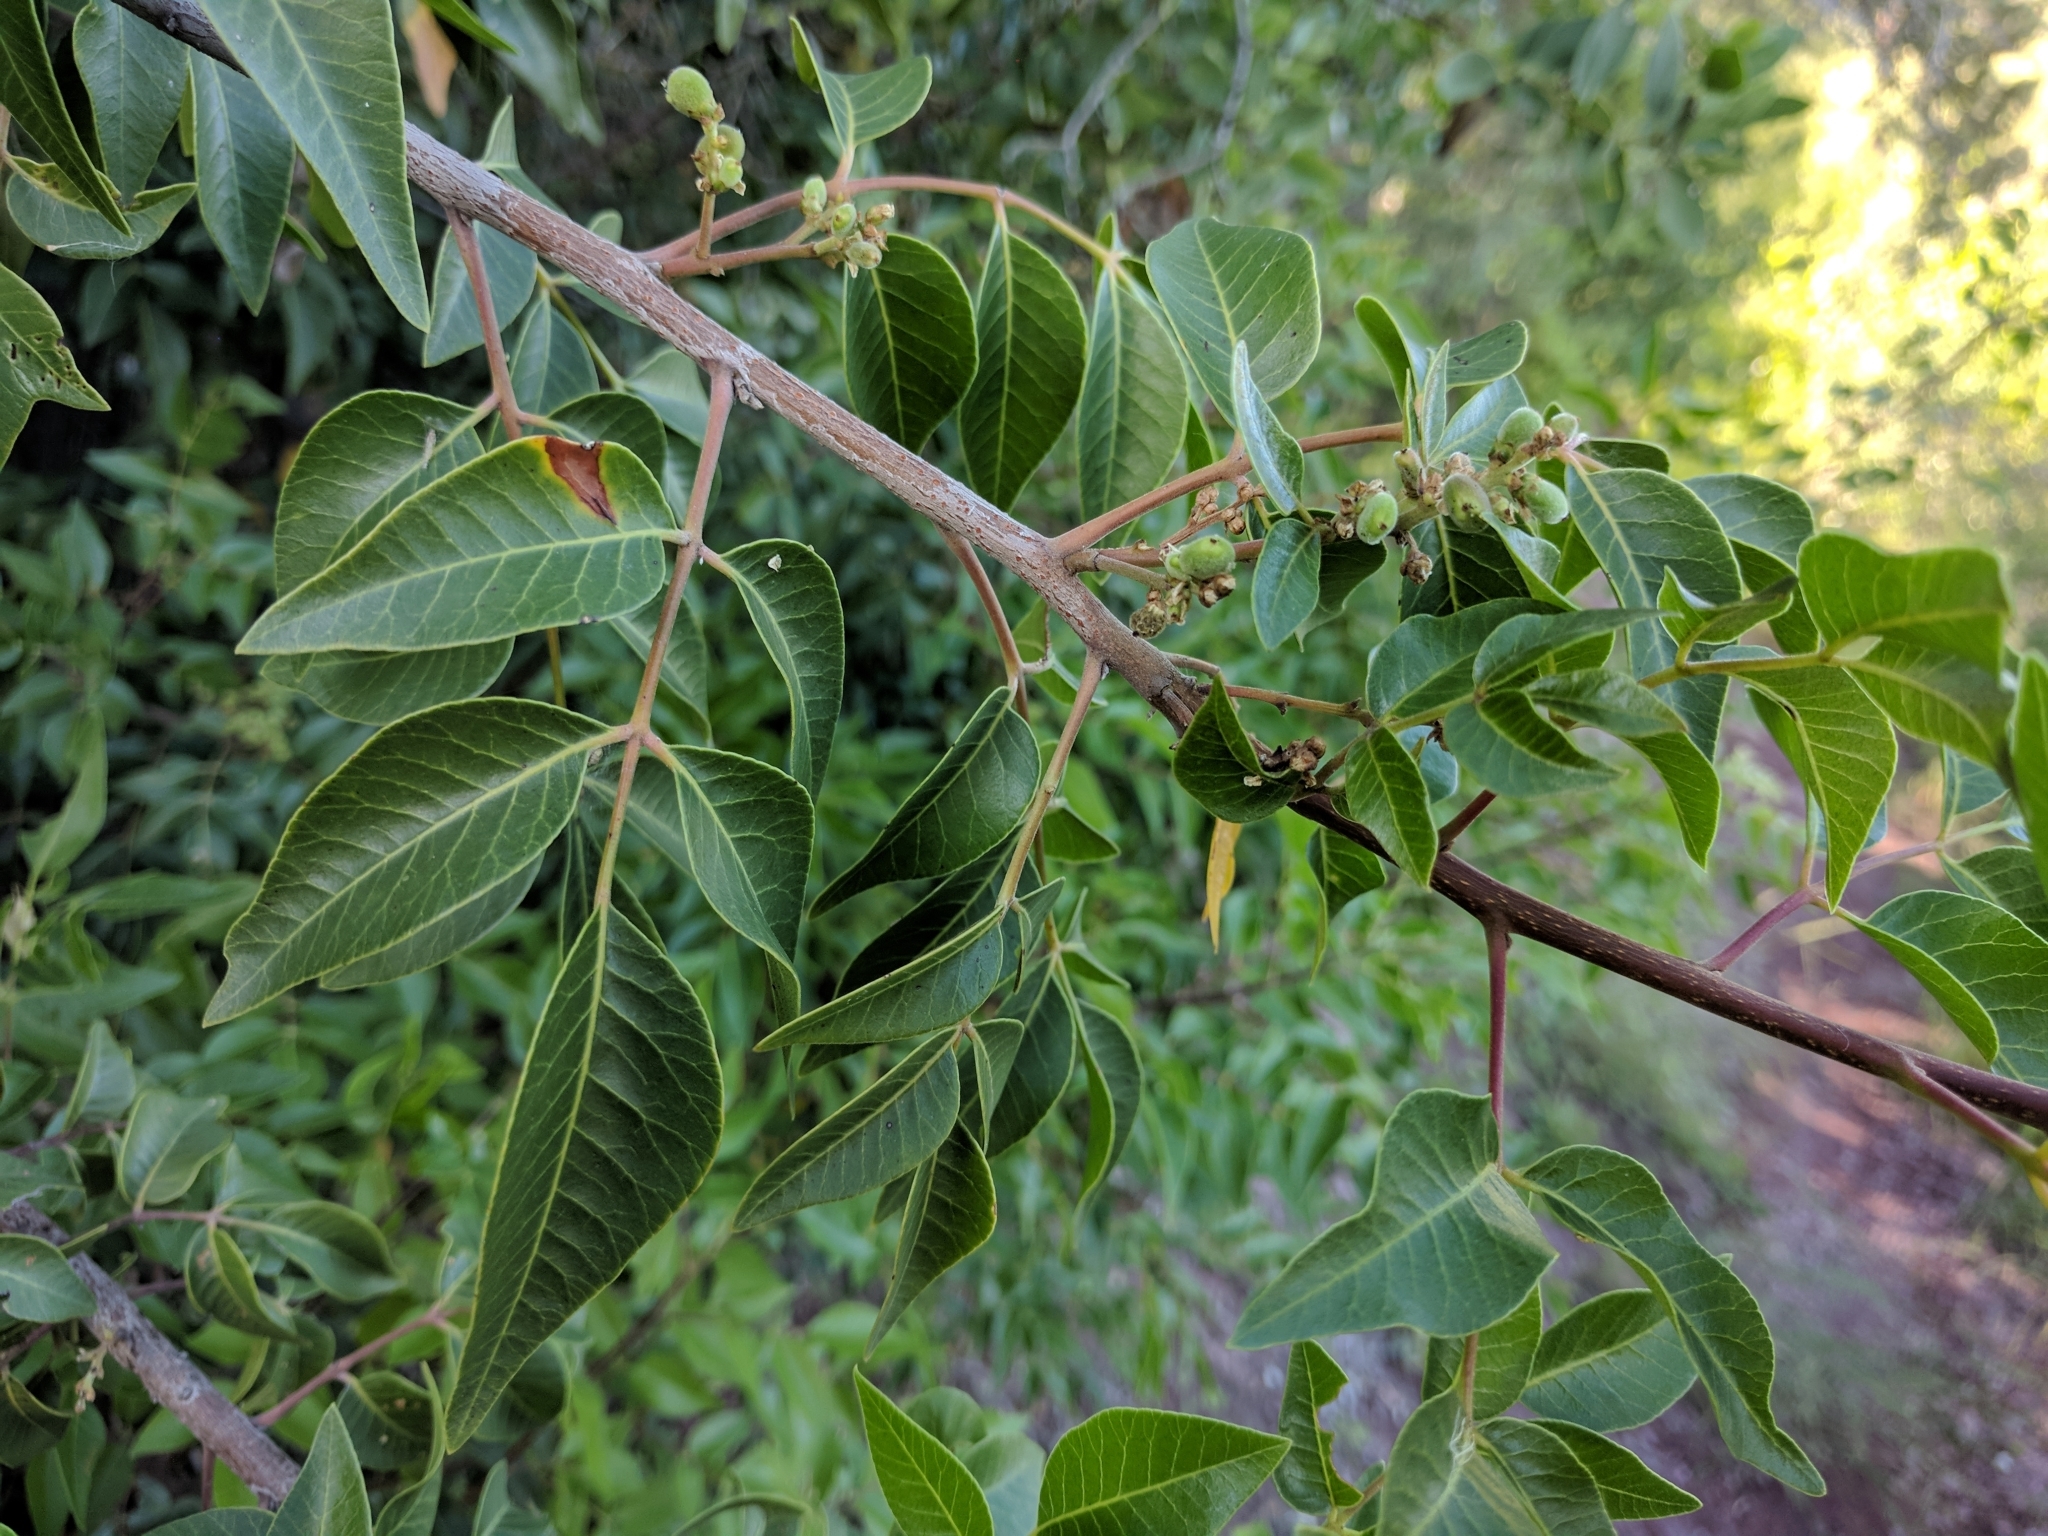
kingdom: Plantae
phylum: Tracheophyta
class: Magnoliopsida
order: Sapindales
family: Anacardiaceae
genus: Rhus
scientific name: Rhus virens
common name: Evergreen sumac
